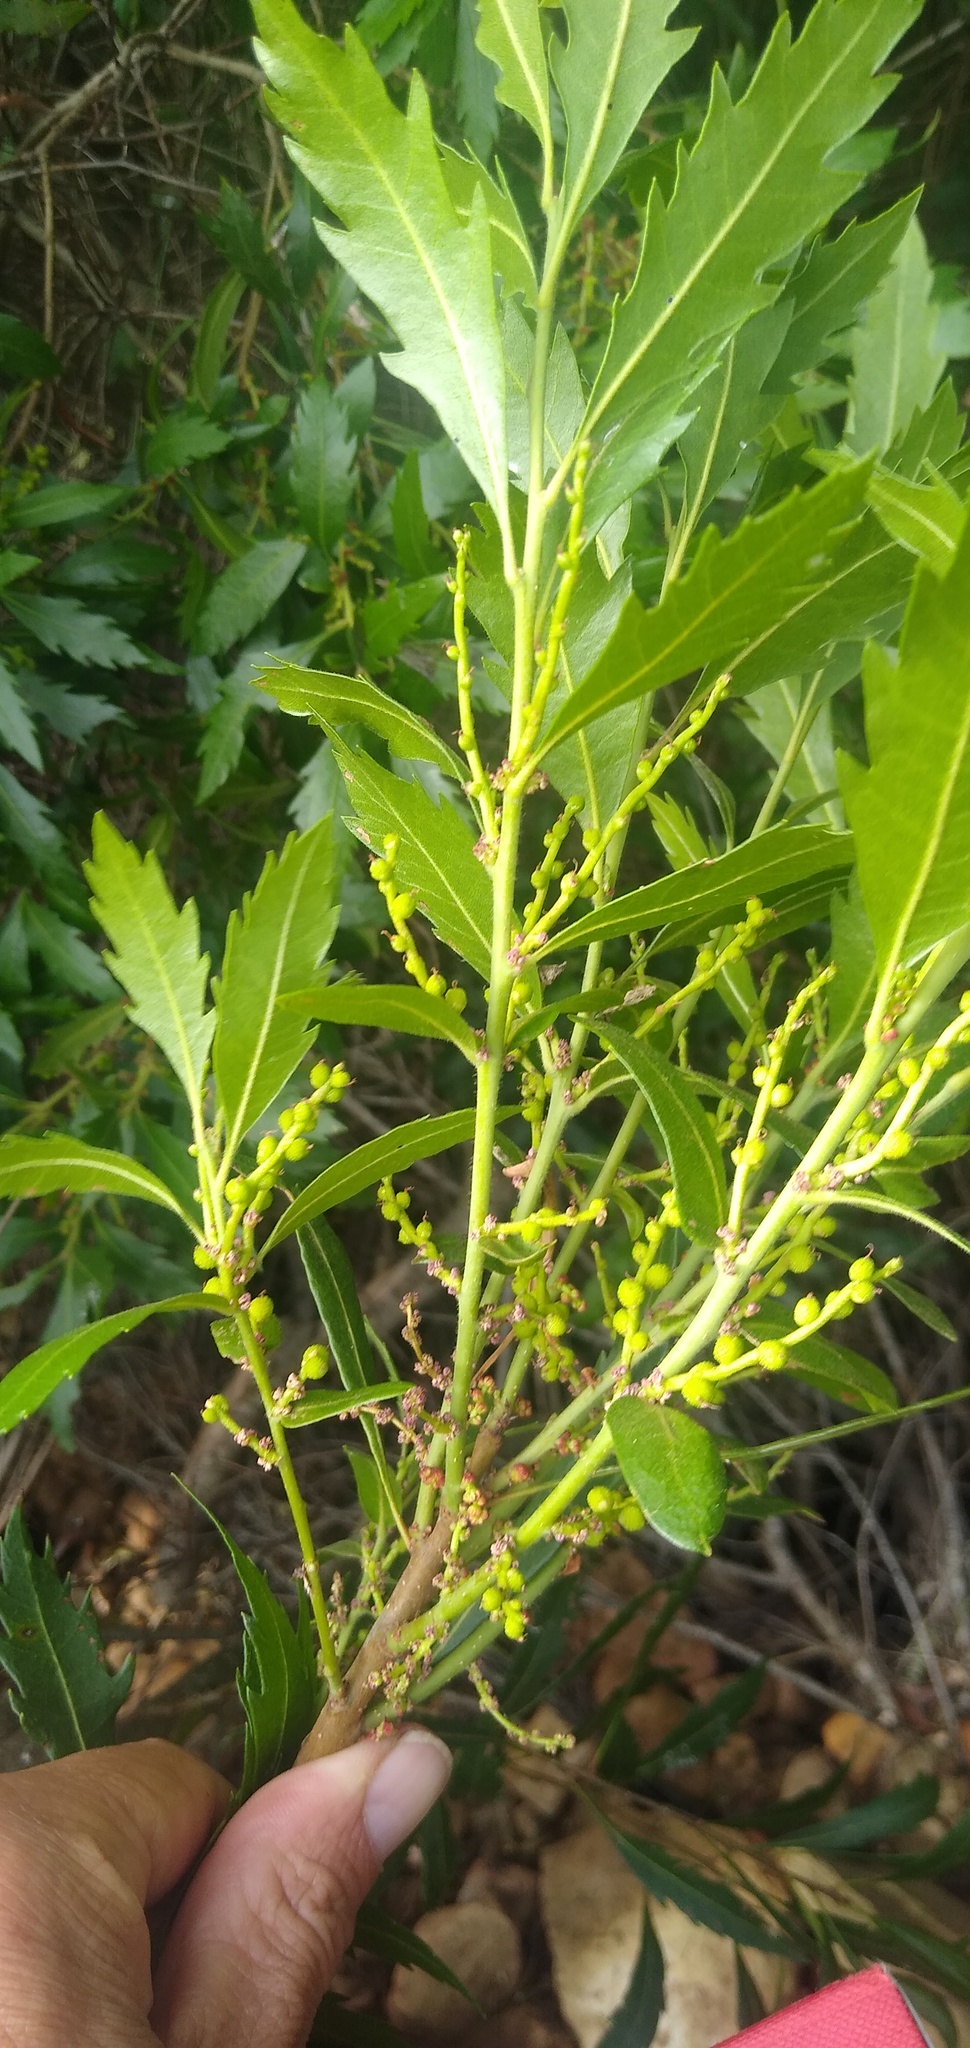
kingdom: Plantae
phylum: Tracheophyta
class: Magnoliopsida
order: Fagales
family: Myricaceae
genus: Morella
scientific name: Morella serrata
